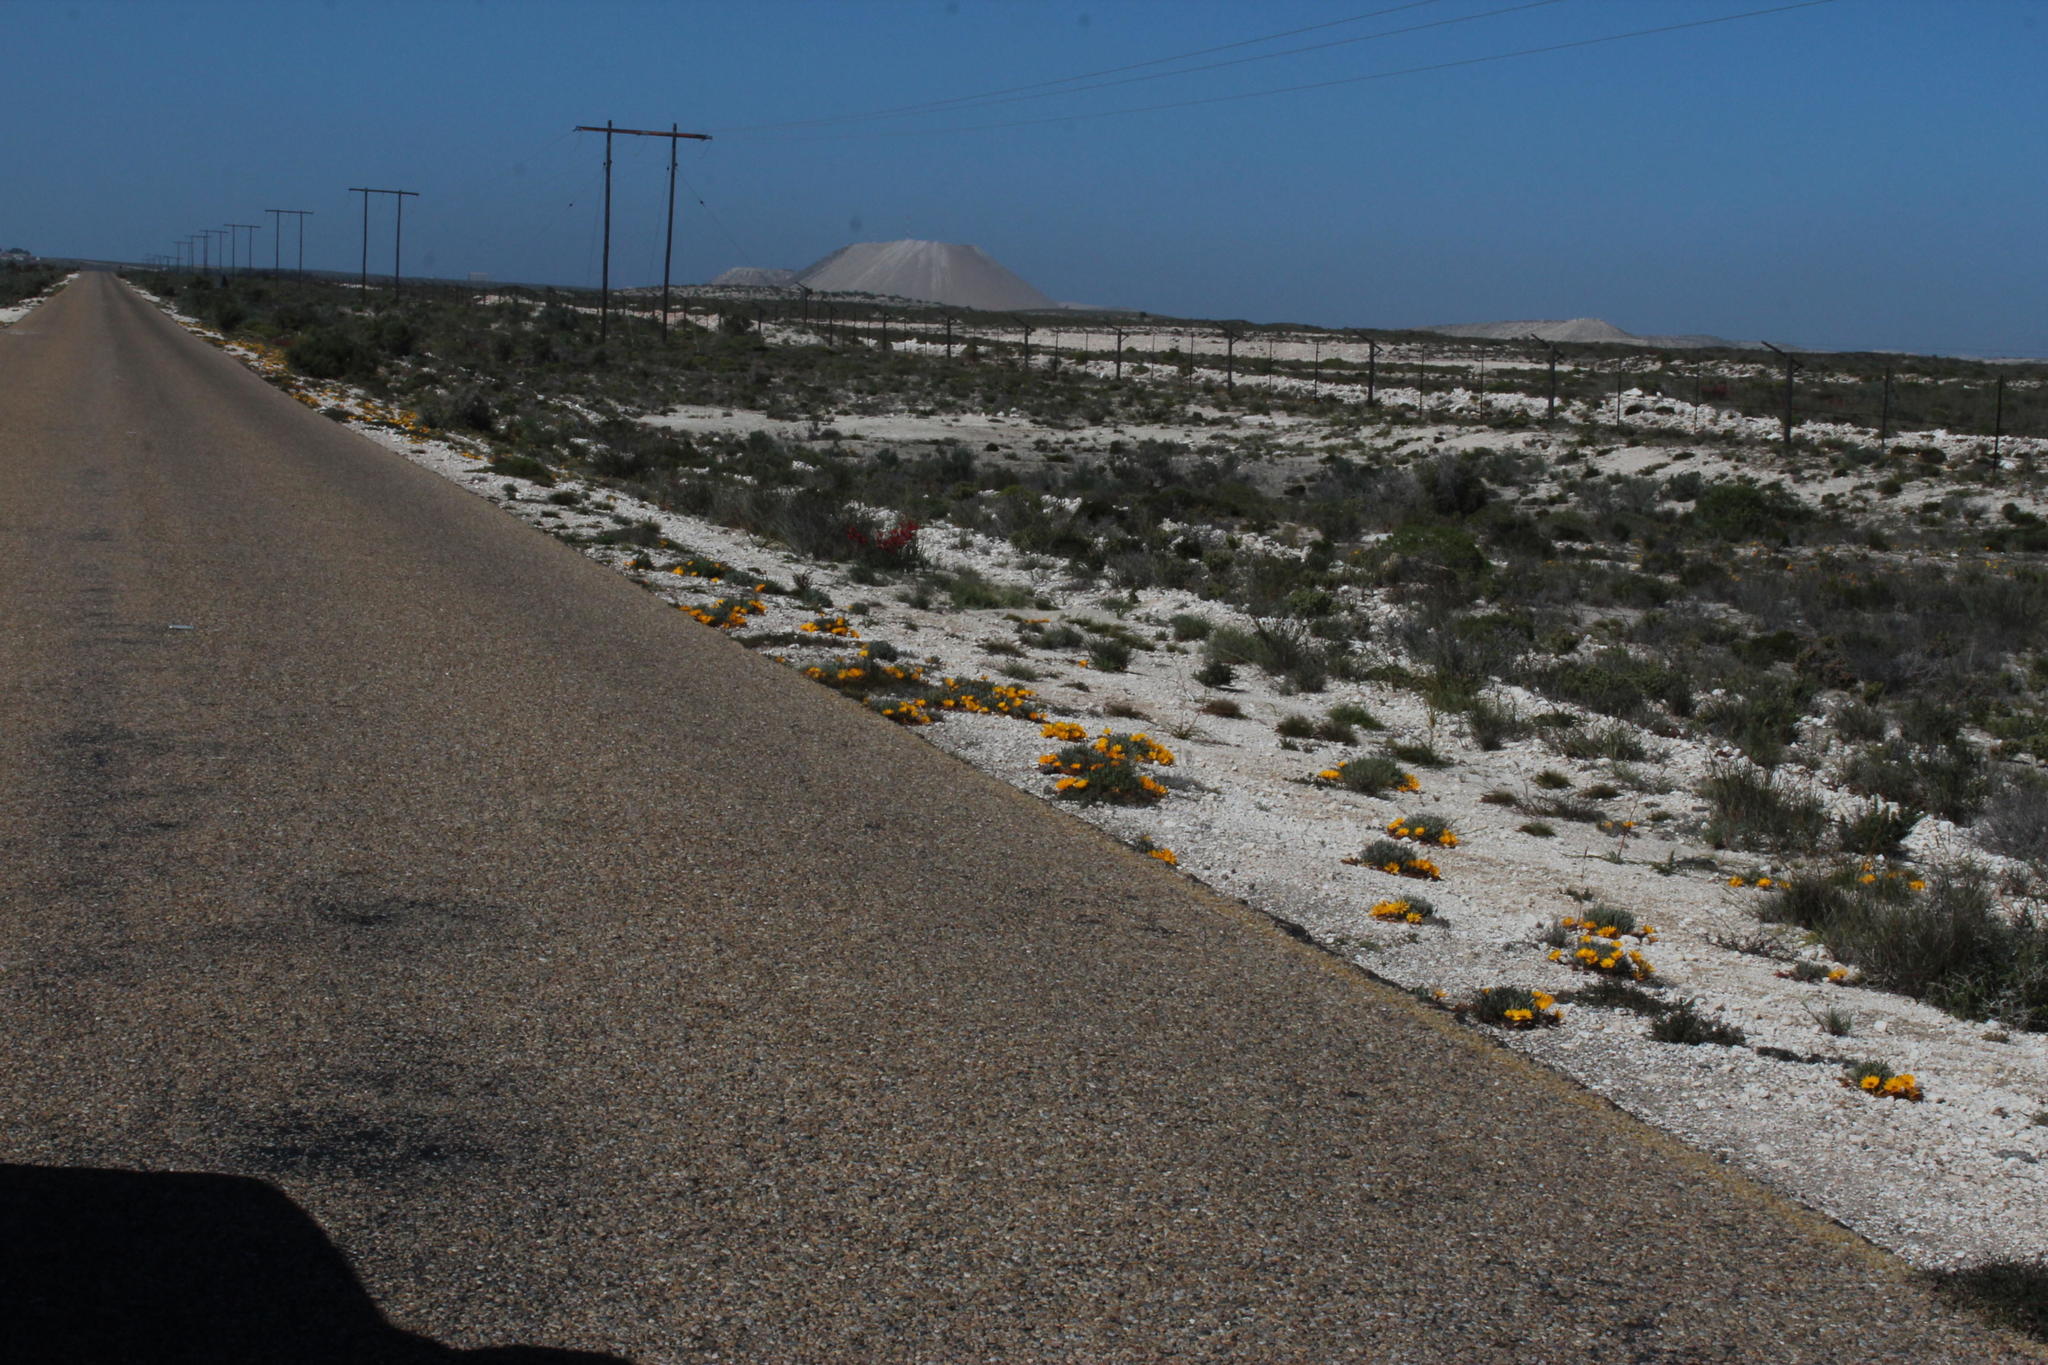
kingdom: Plantae
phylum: Tracheophyta
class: Magnoliopsida
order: Asterales
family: Asteraceae
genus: Gazania
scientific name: Gazania splendidissima
